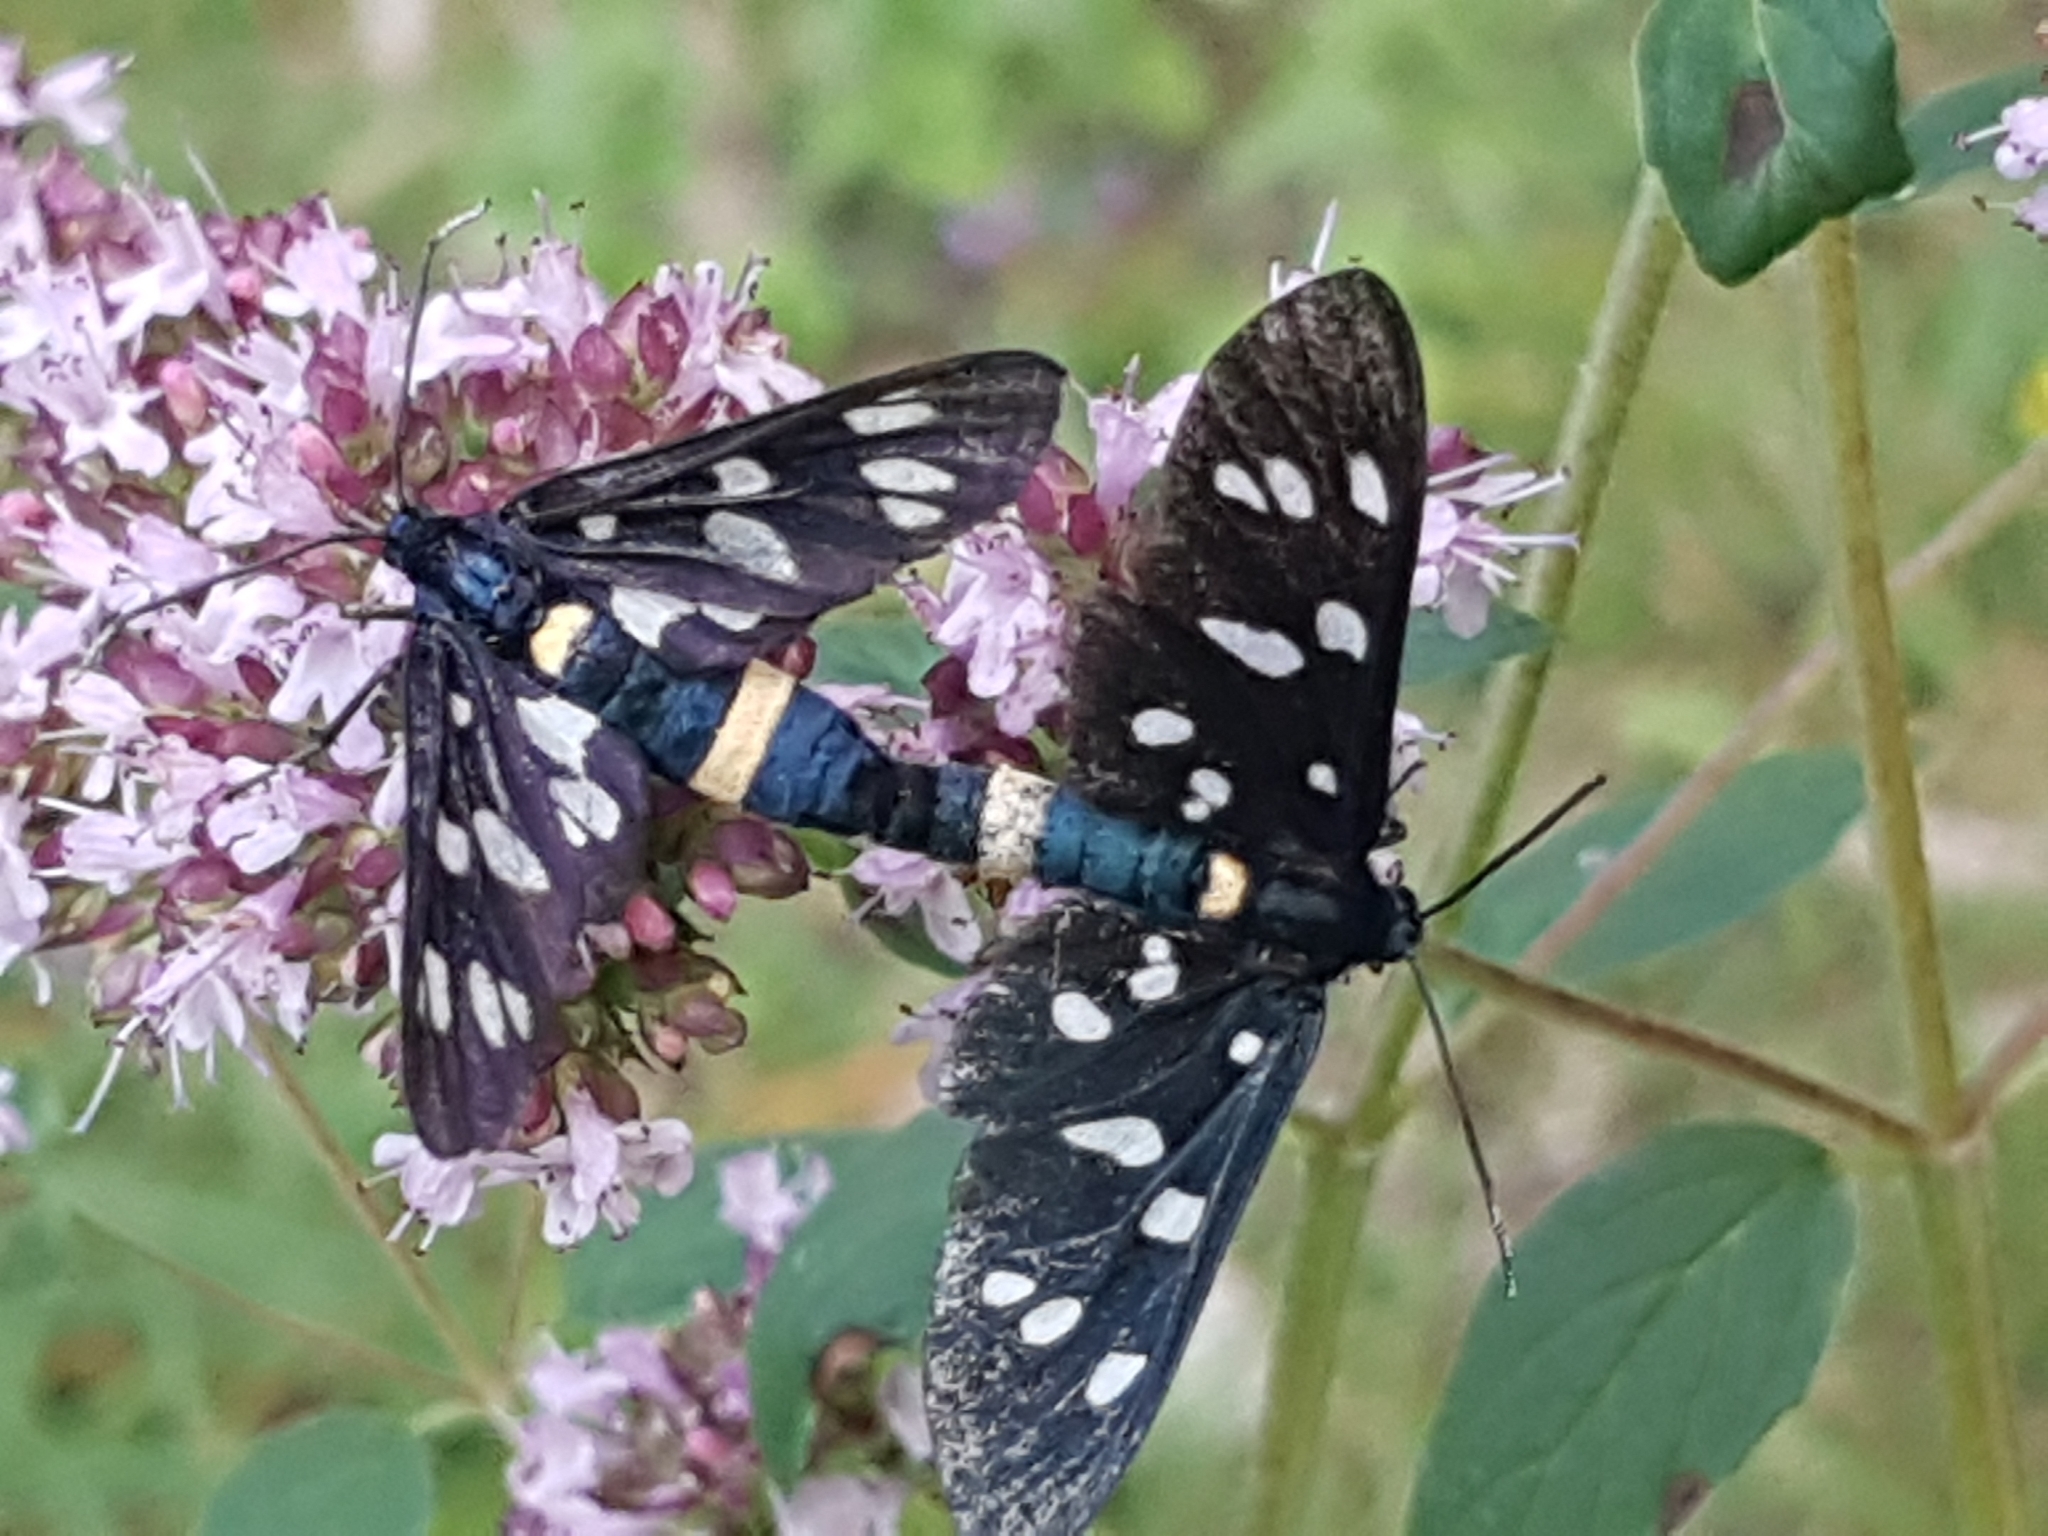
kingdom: Animalia
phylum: Arthropoda
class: Insecta
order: Lepidoptera
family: Erebidae
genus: Amata
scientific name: Amata phegea
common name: Nine-spotted
